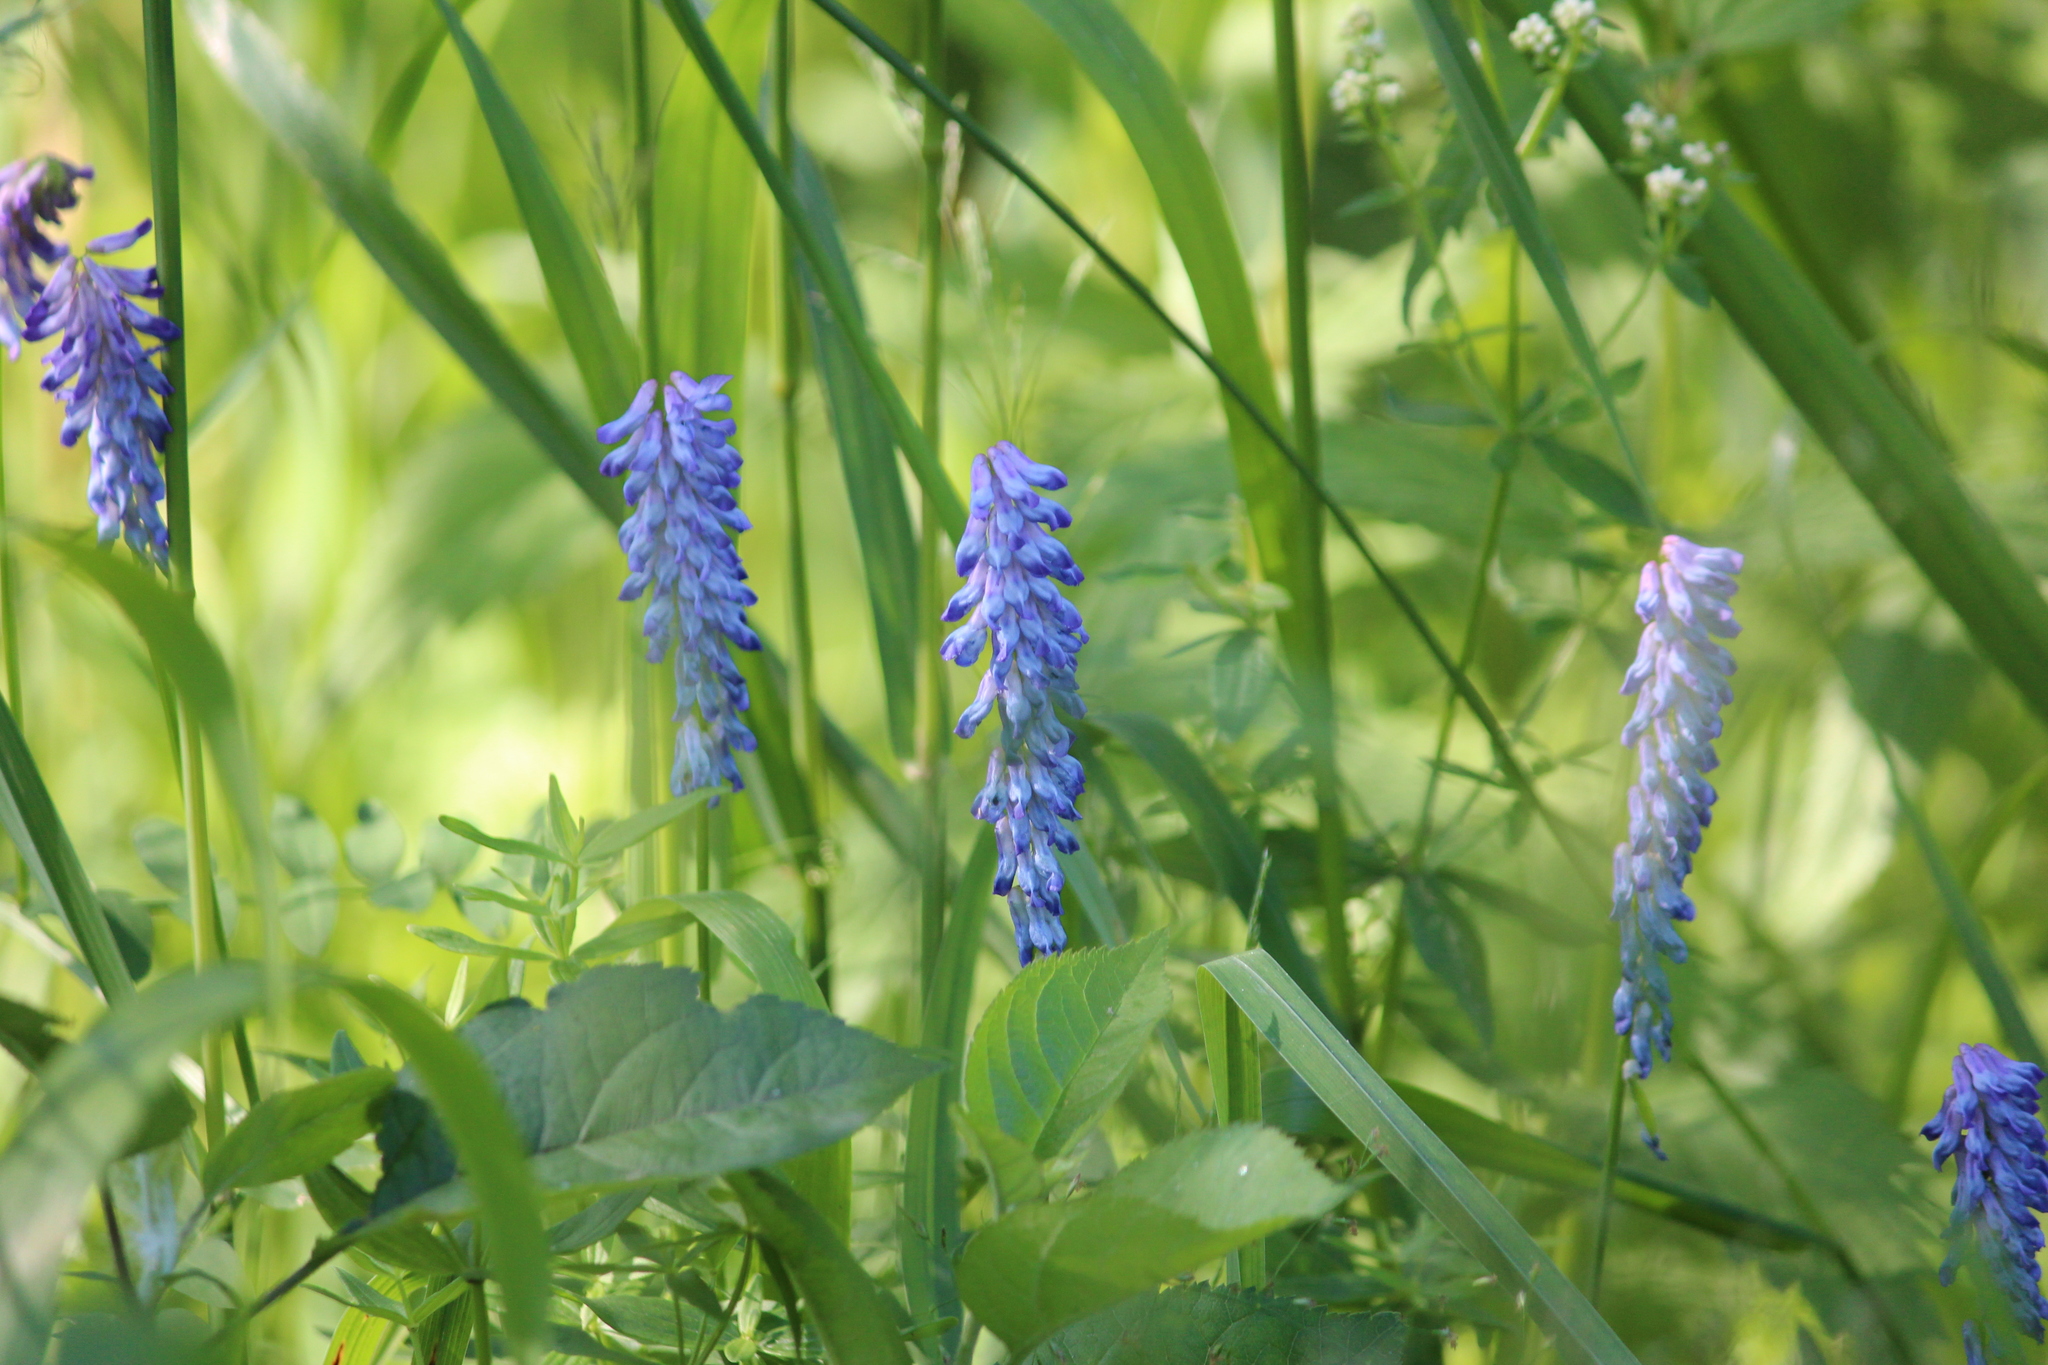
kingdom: Plantae
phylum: Tracheophyta
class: Magnoliopsida
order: Fabales
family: Fabaceae
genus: Vicia
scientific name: Vicia cracca
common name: Bird vetch
